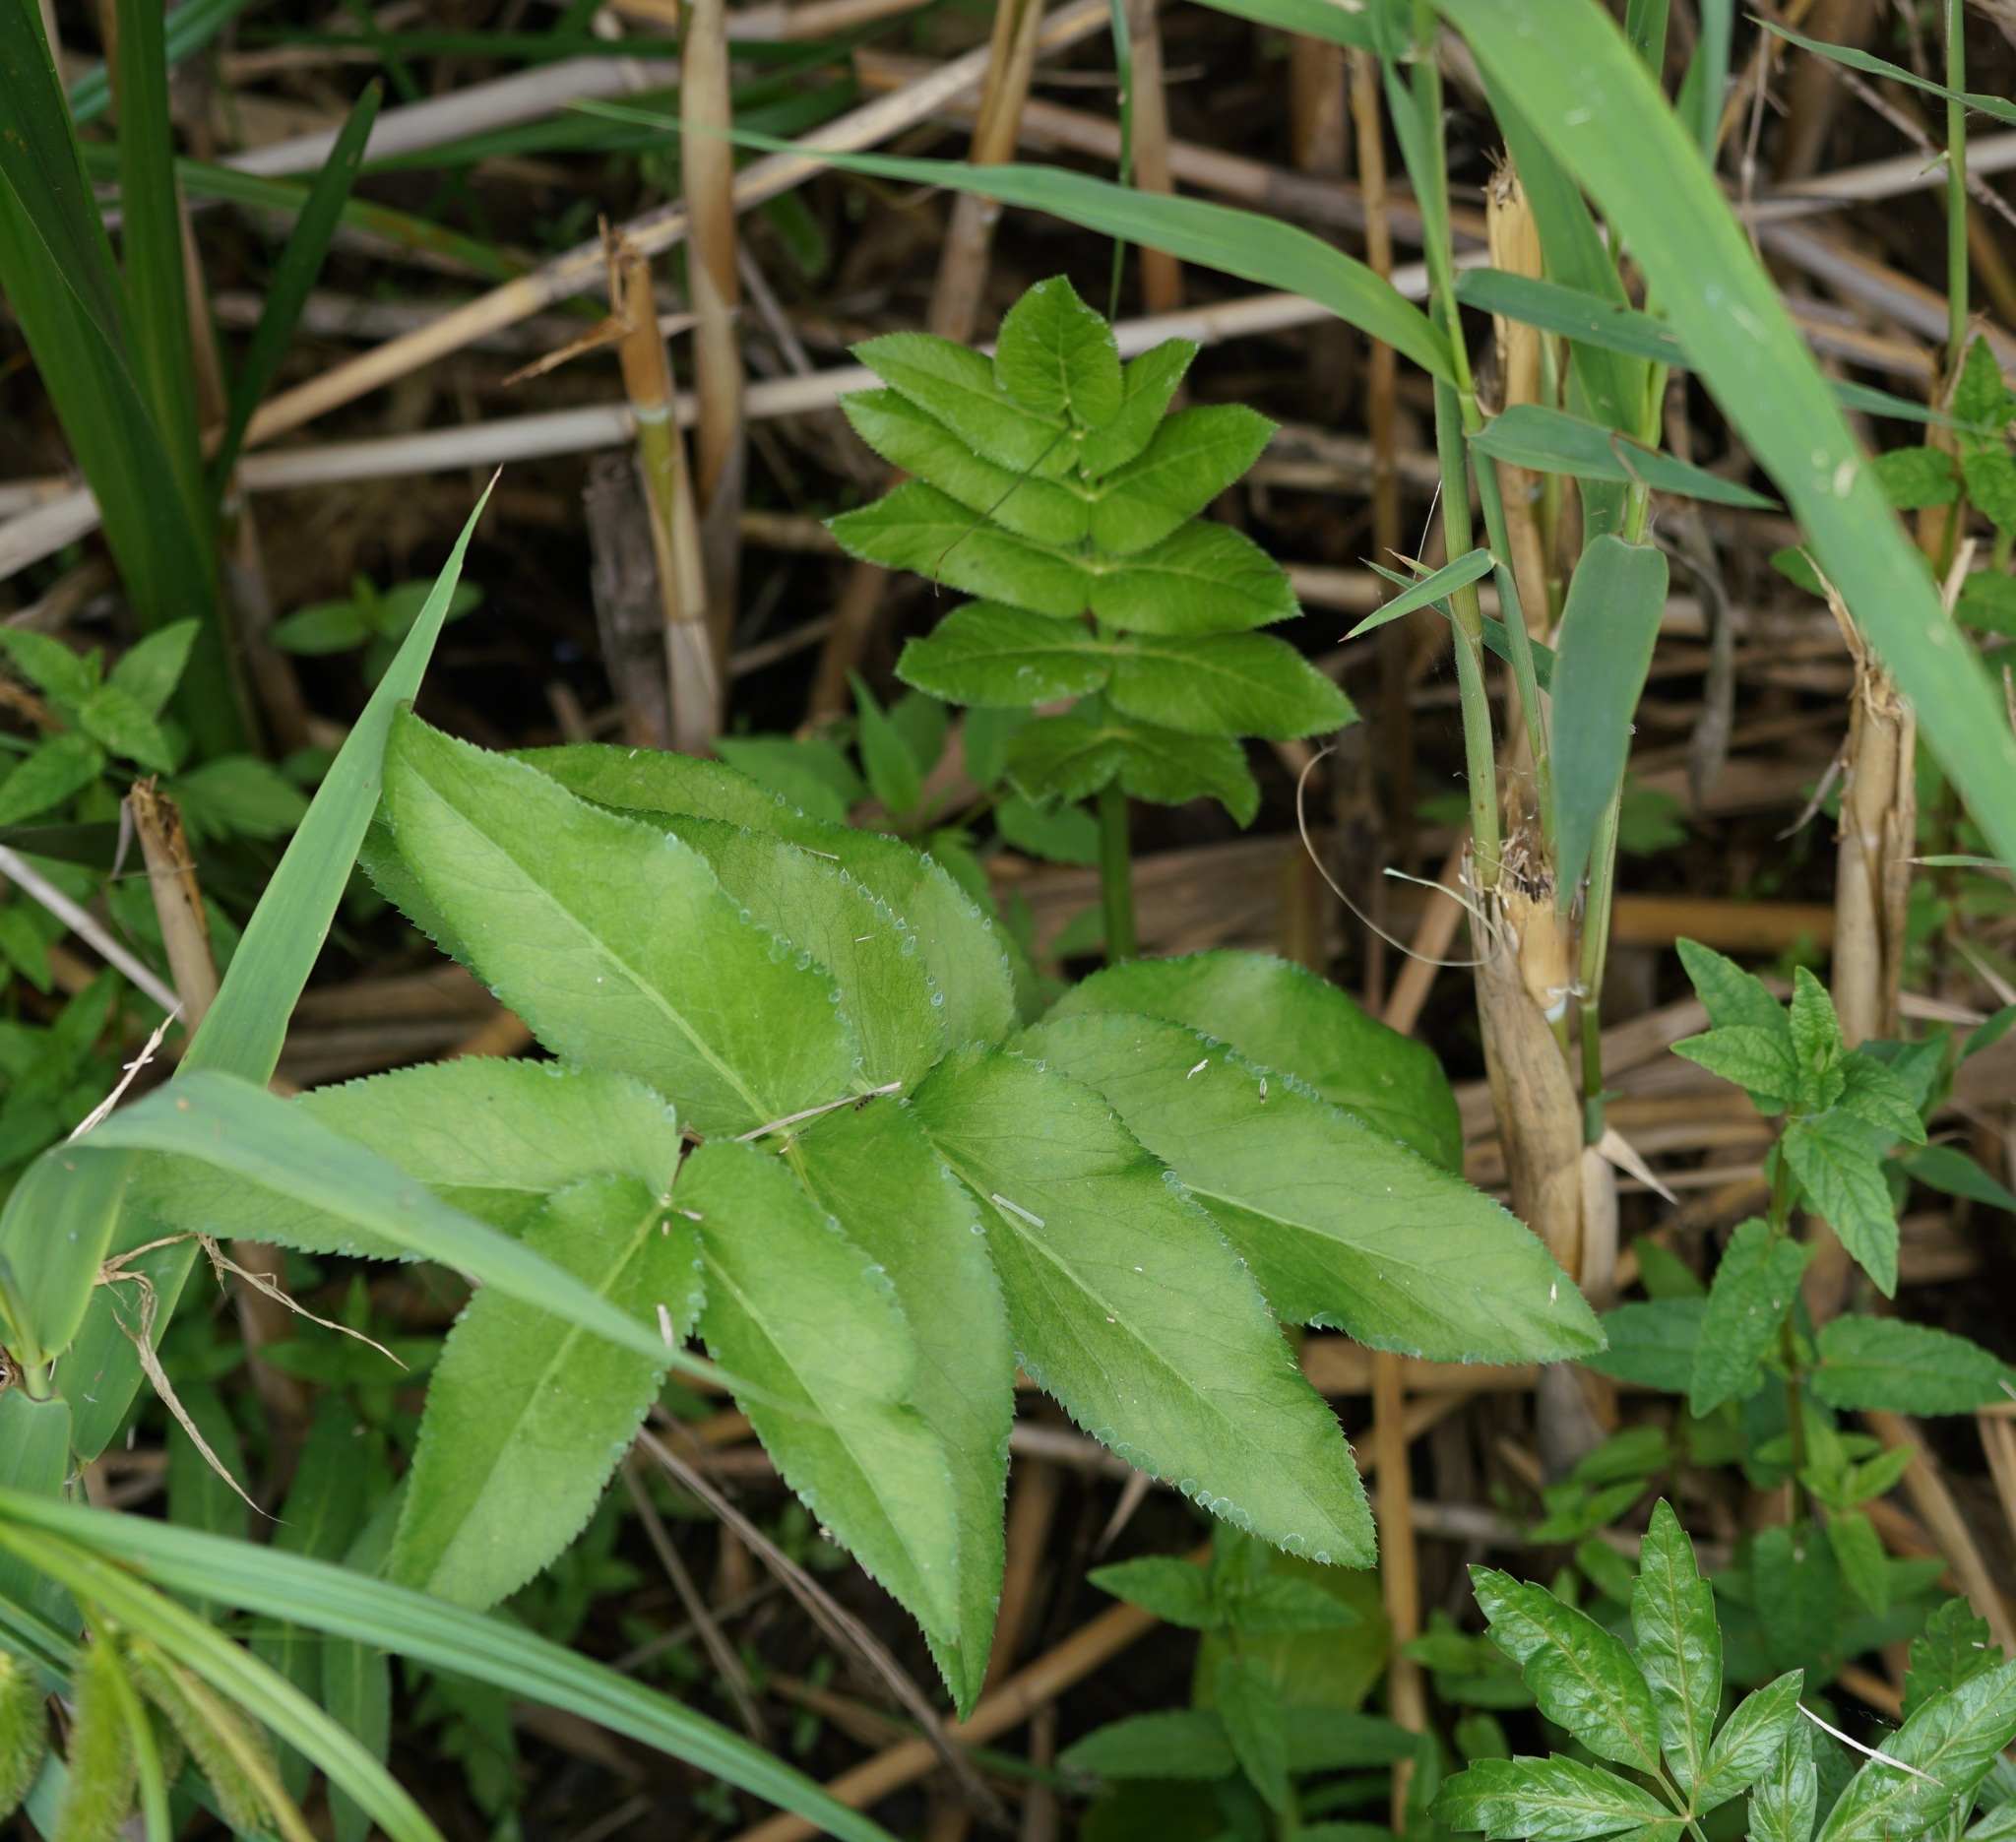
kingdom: Plantae
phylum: Tracheophyta
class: Magnoliopsida
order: Apiales
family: Apiaceae
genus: Sium
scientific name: Sium latifolium
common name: Greater water-parsnip
